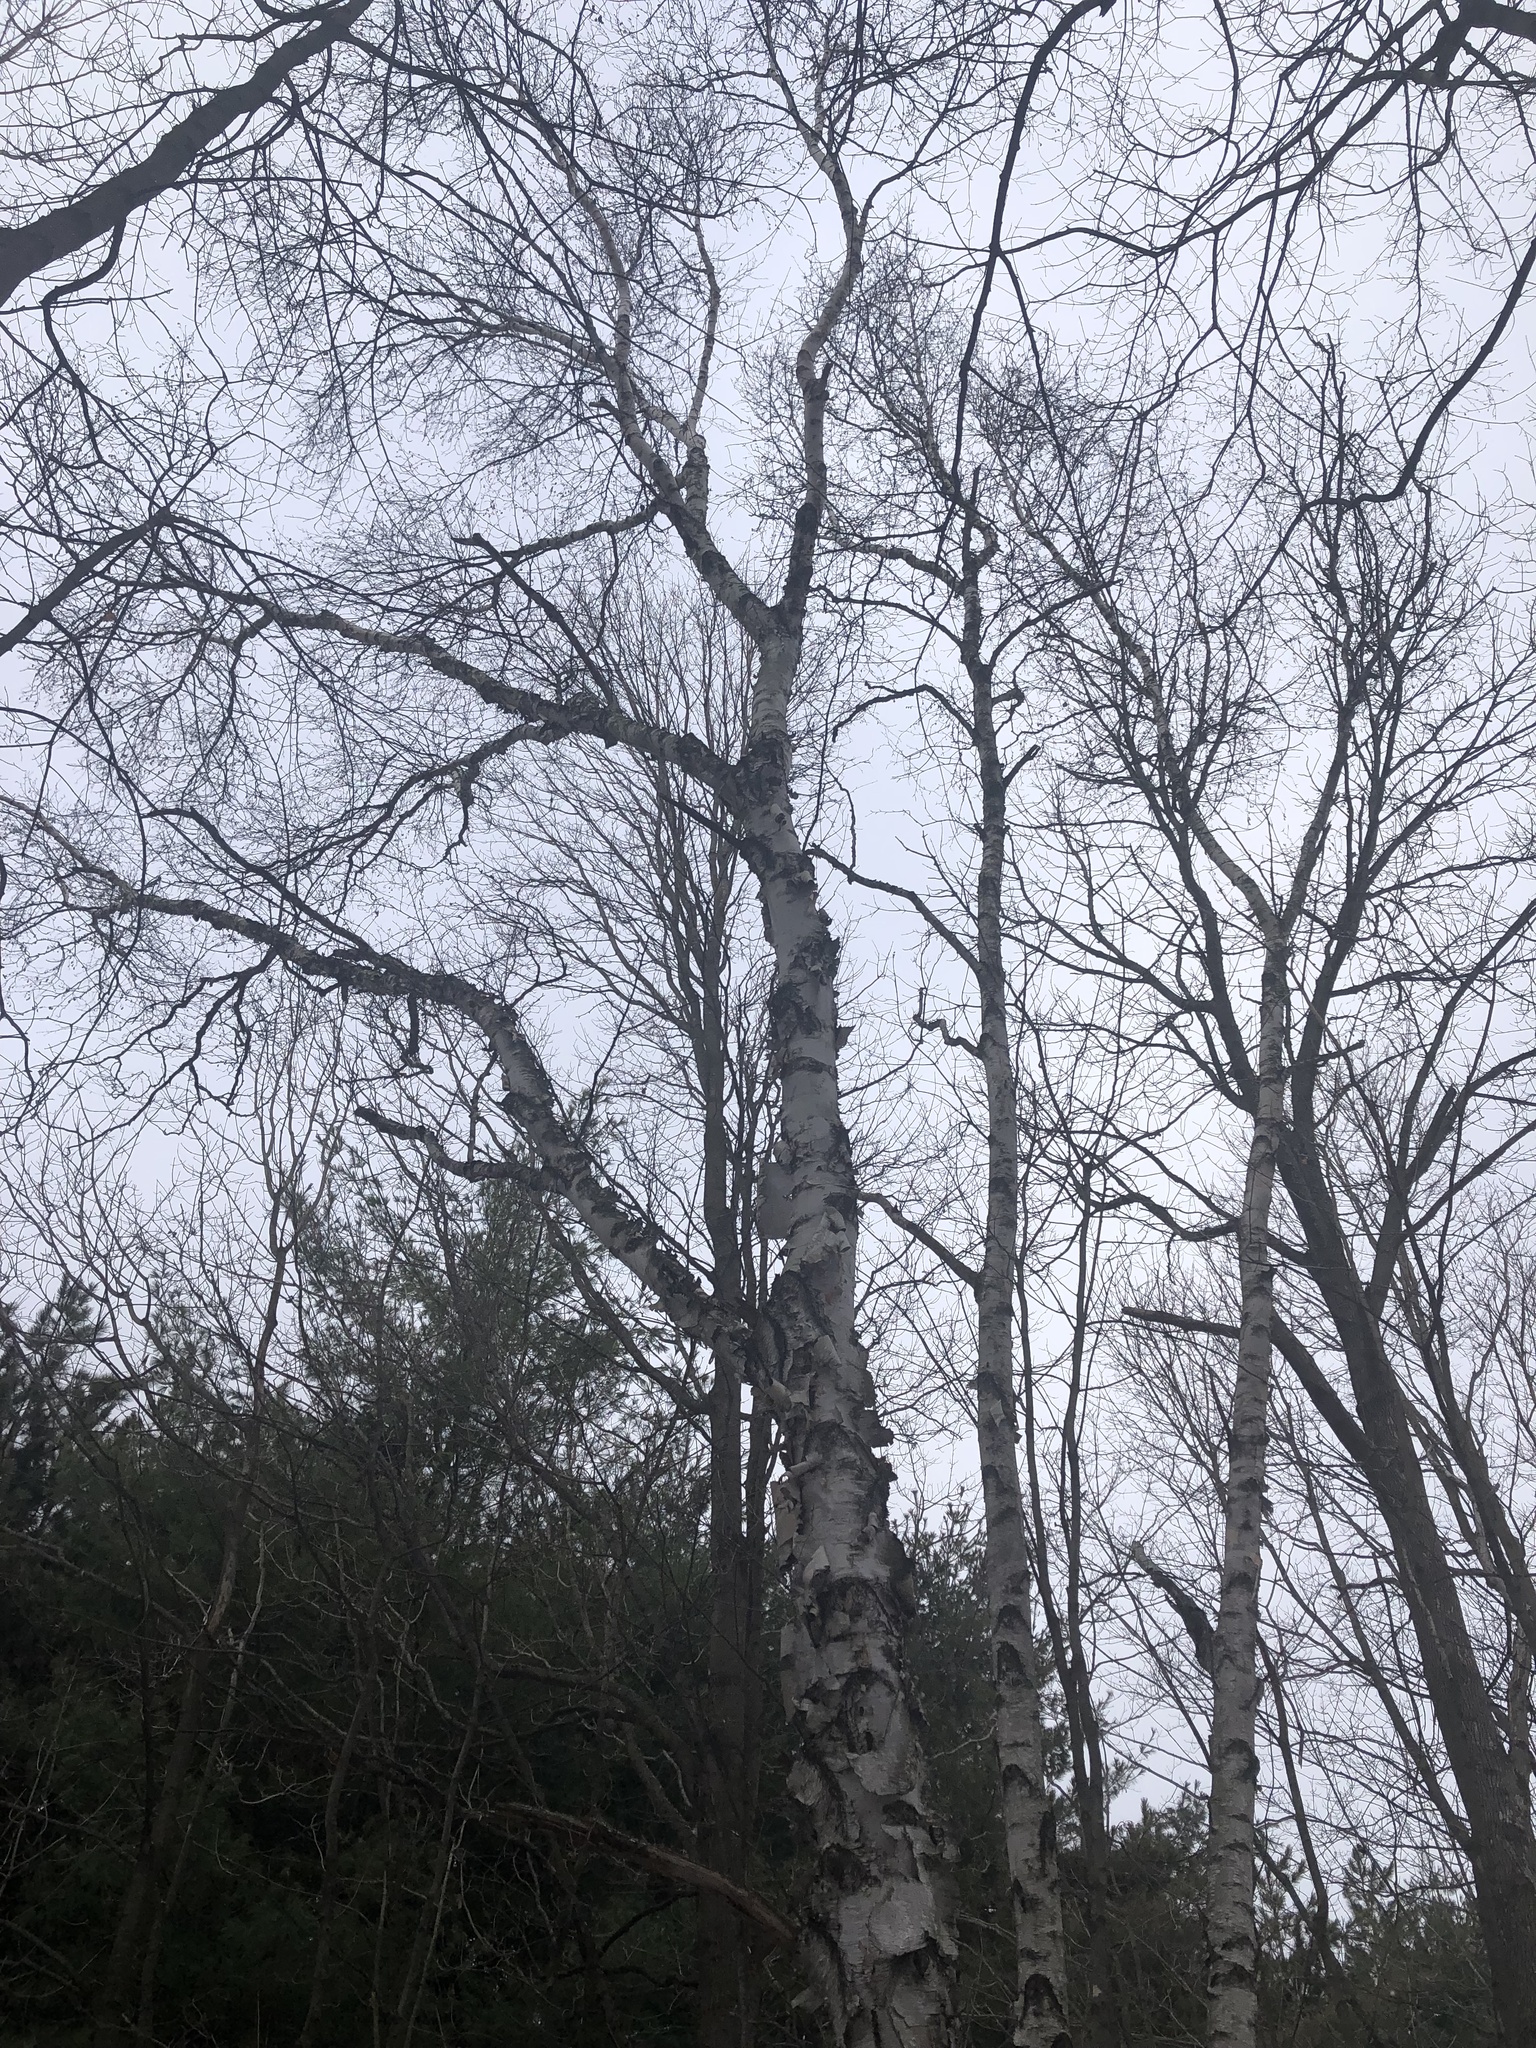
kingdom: Plantae
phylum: Tracheophyta
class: Magnoliopsida
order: Fagales
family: Betulaceae
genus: Betula
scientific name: Betula papyrifera
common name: Paper birch
